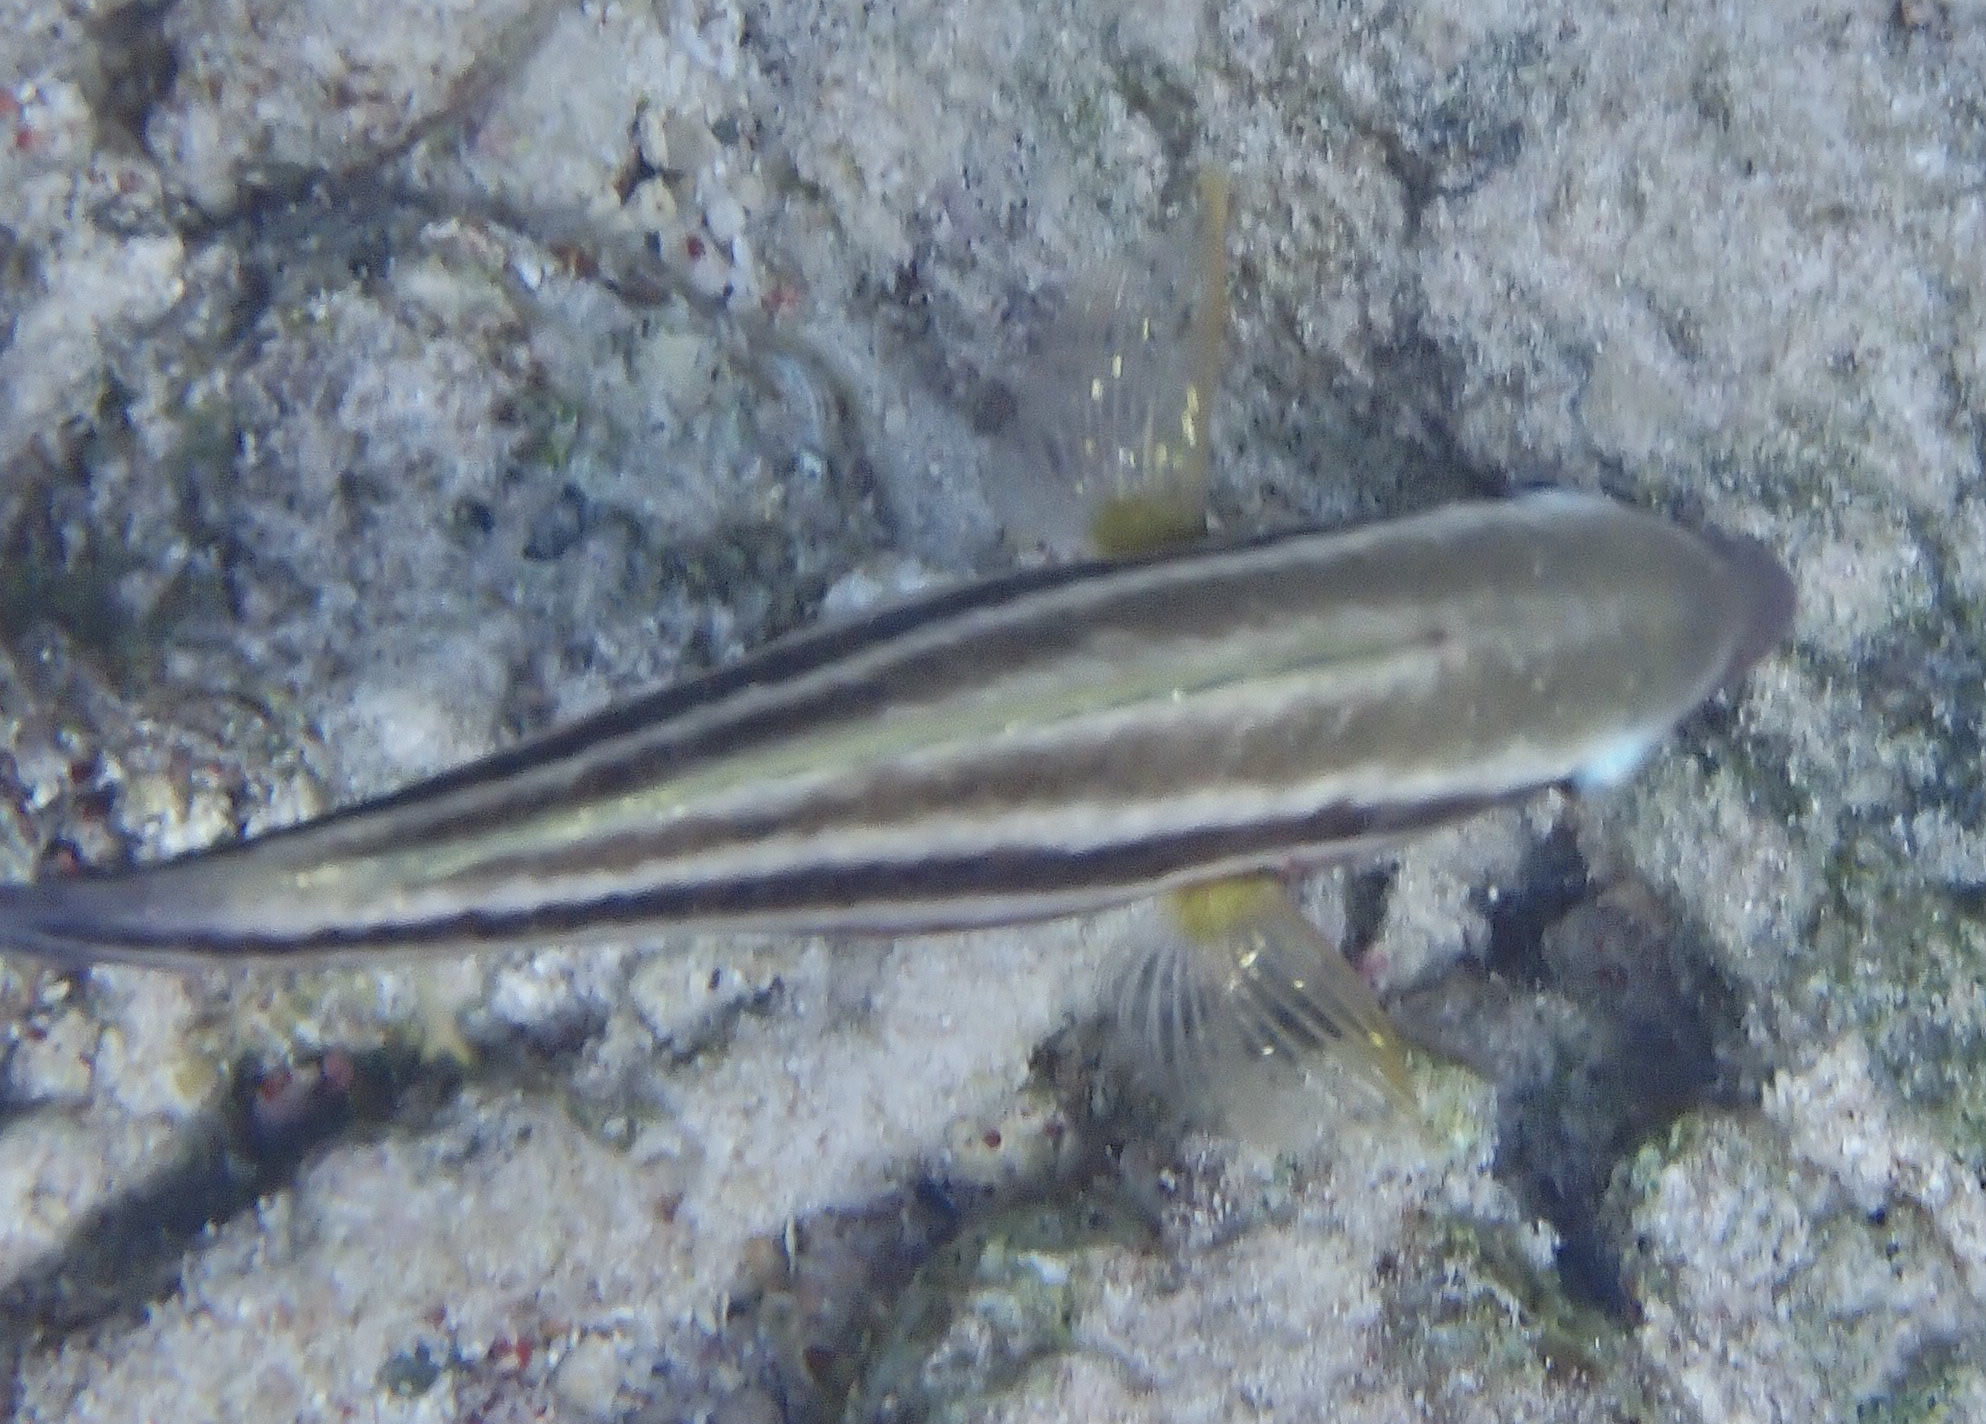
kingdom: Animalia
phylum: Chordata
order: Perciformes
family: Scaridae
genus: Scarus
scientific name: Scarus iseri
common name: Striped parrotfish
